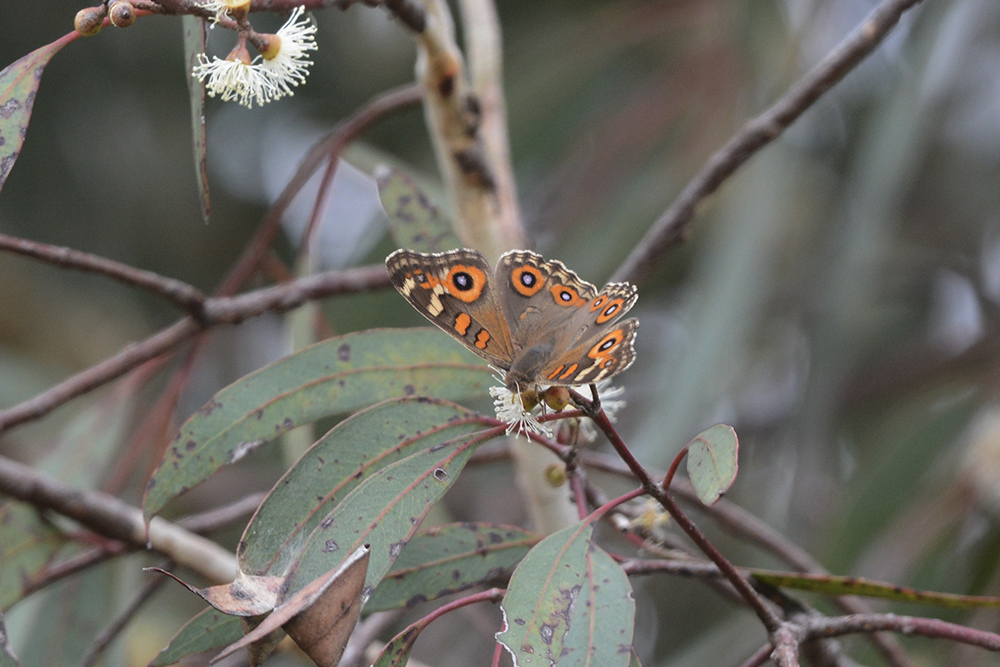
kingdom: Animalia
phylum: Arthropoda
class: Insecta
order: Lepidoptera
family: Nymphalidae
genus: Junonia
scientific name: Junonia villida
